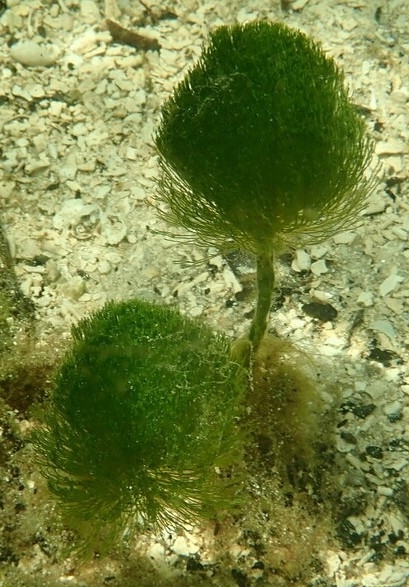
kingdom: Plantae
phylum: Chlorophyta
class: Ulvophyceae
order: Bryopsidales
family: Udoteaceae
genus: Penicillus
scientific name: Penicillus capitatus
